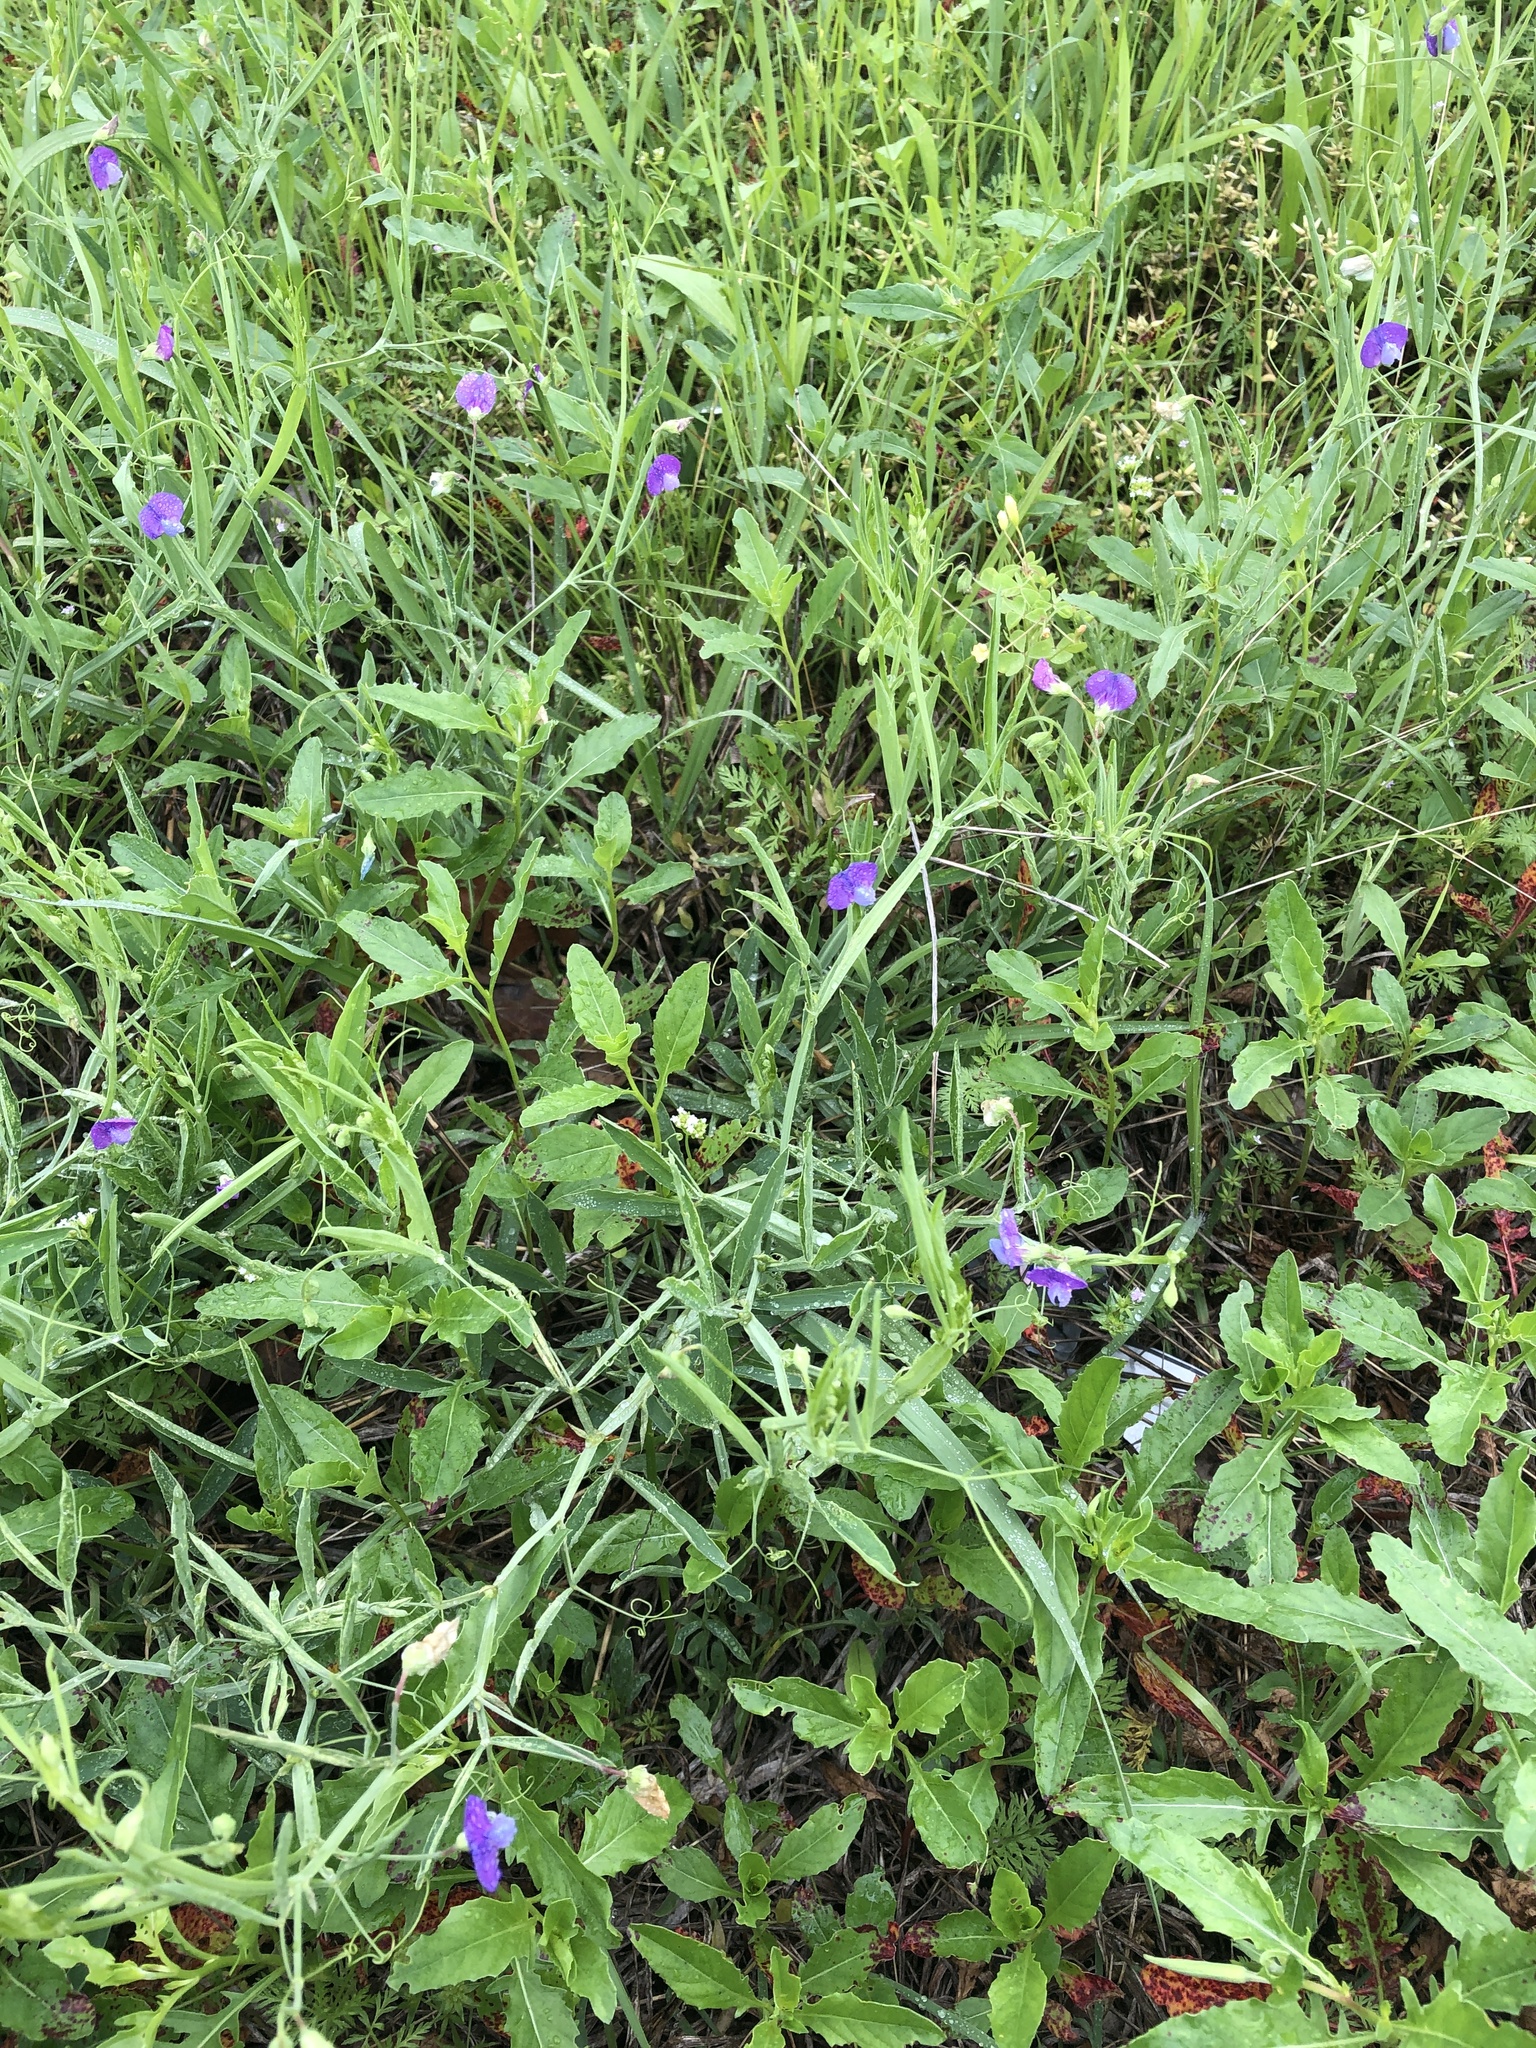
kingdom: Plantae
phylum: Tracheophyta
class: Magnoliopsida
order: Fabales
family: Fabaceae
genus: Lathyrus
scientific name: Lathyrus hirsutus
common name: Hairy vetchling
